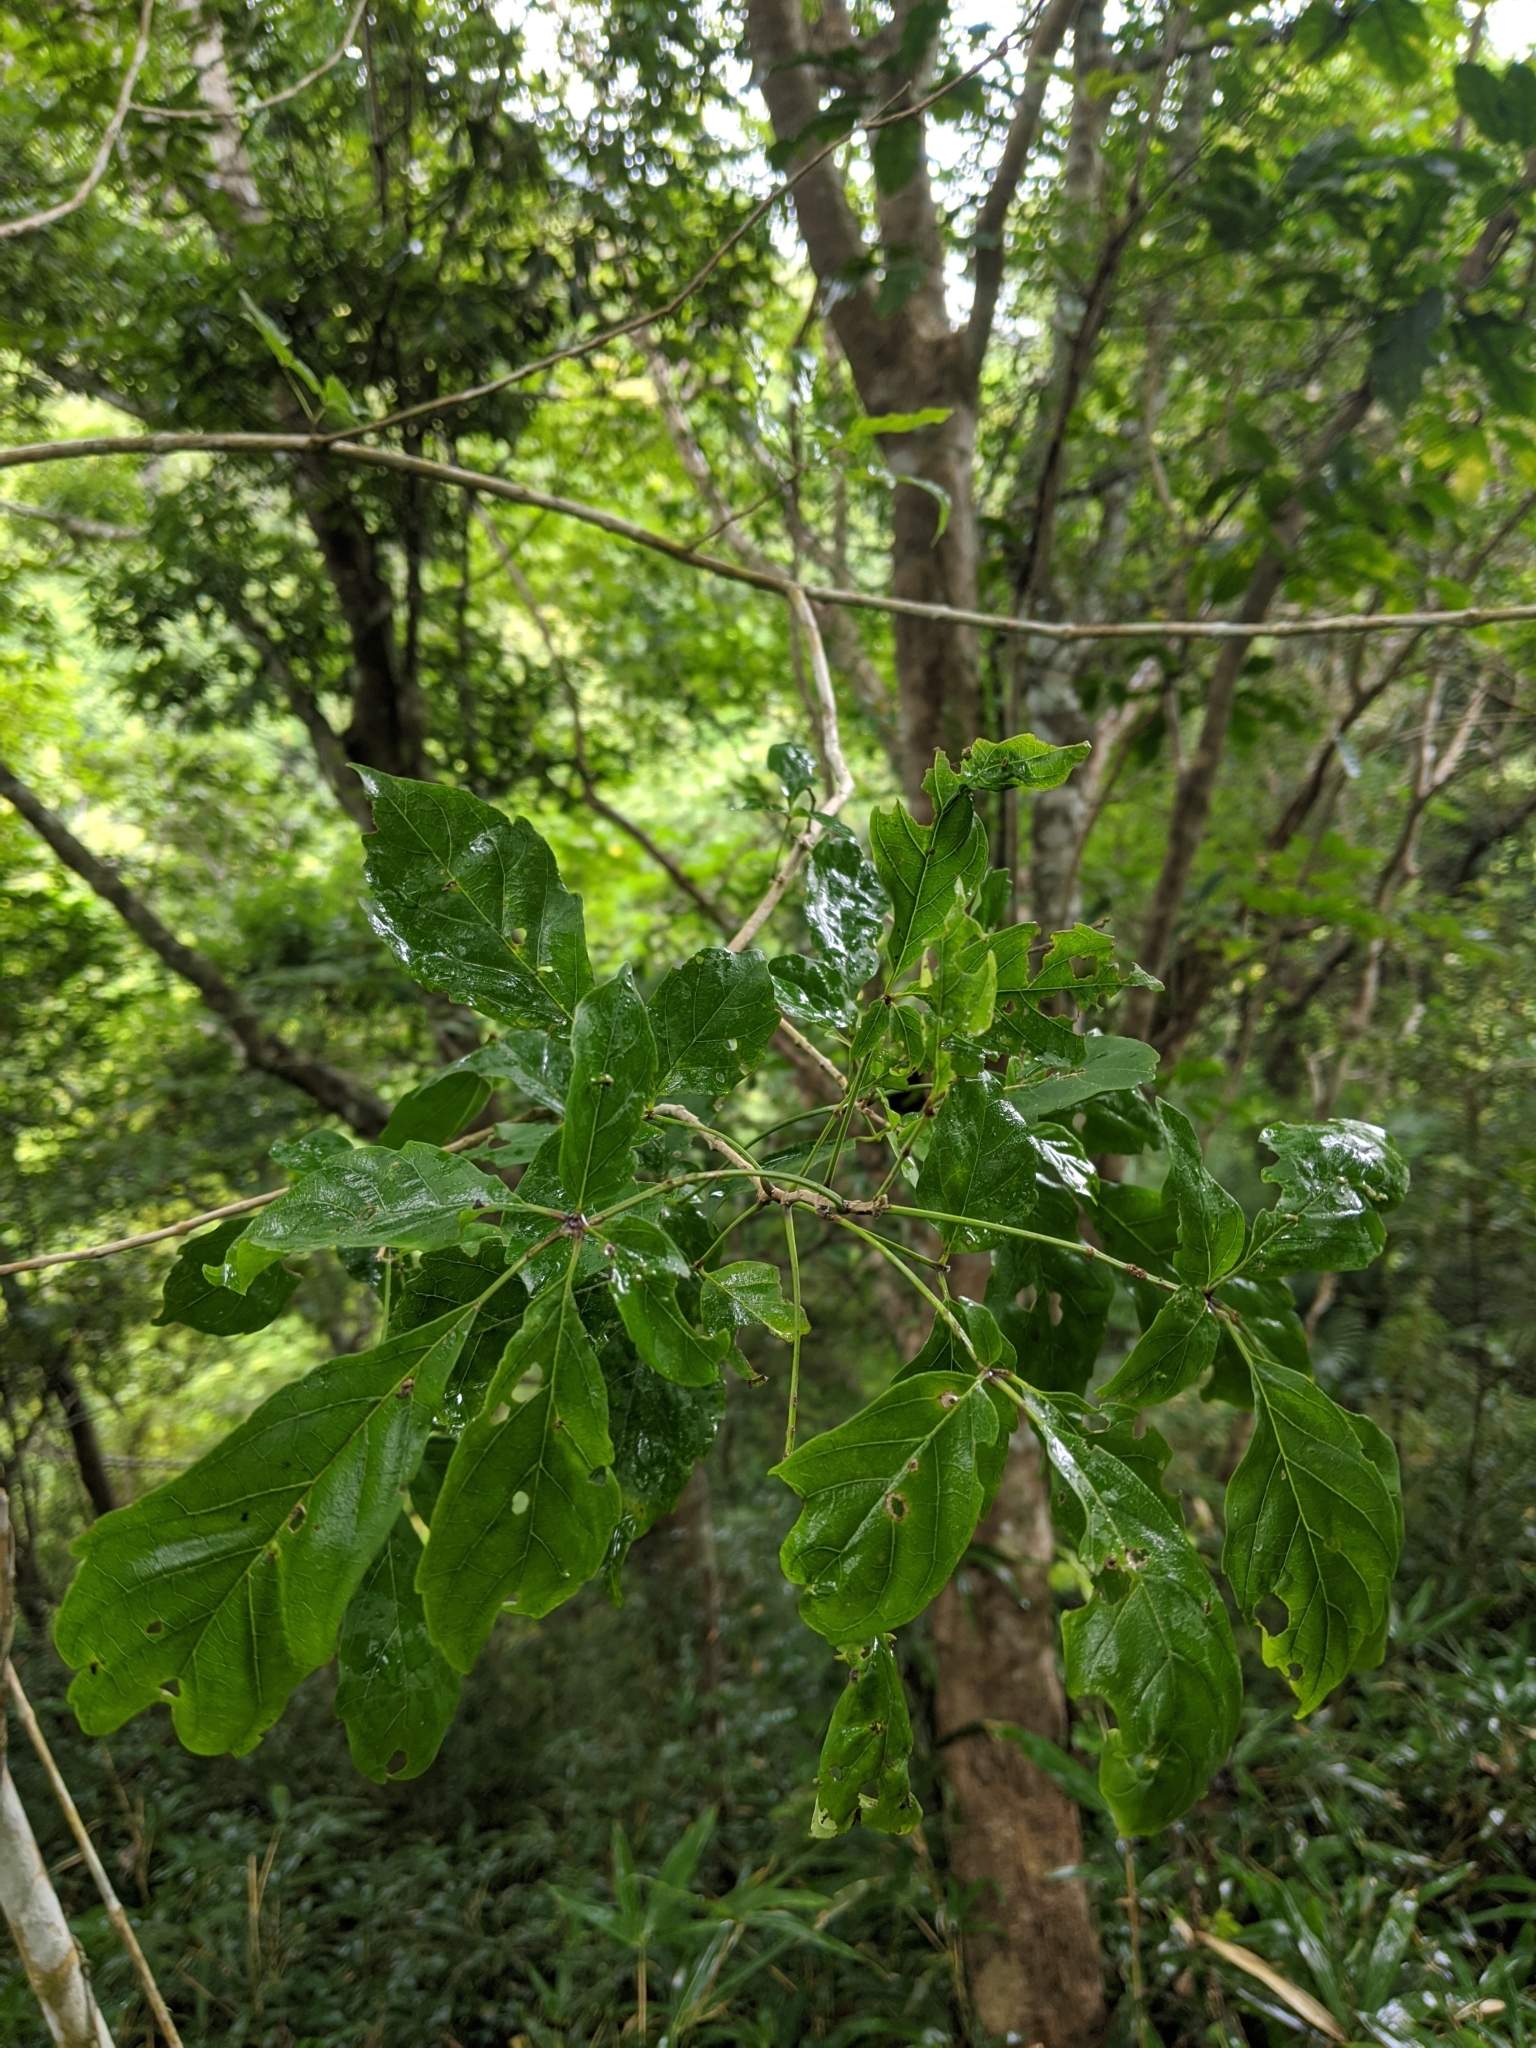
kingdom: Plantae
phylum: Tracheophyta
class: Magnoliopsida
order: Lamiales
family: Lamiaceae
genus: Vitex
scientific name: Vitex quinata
